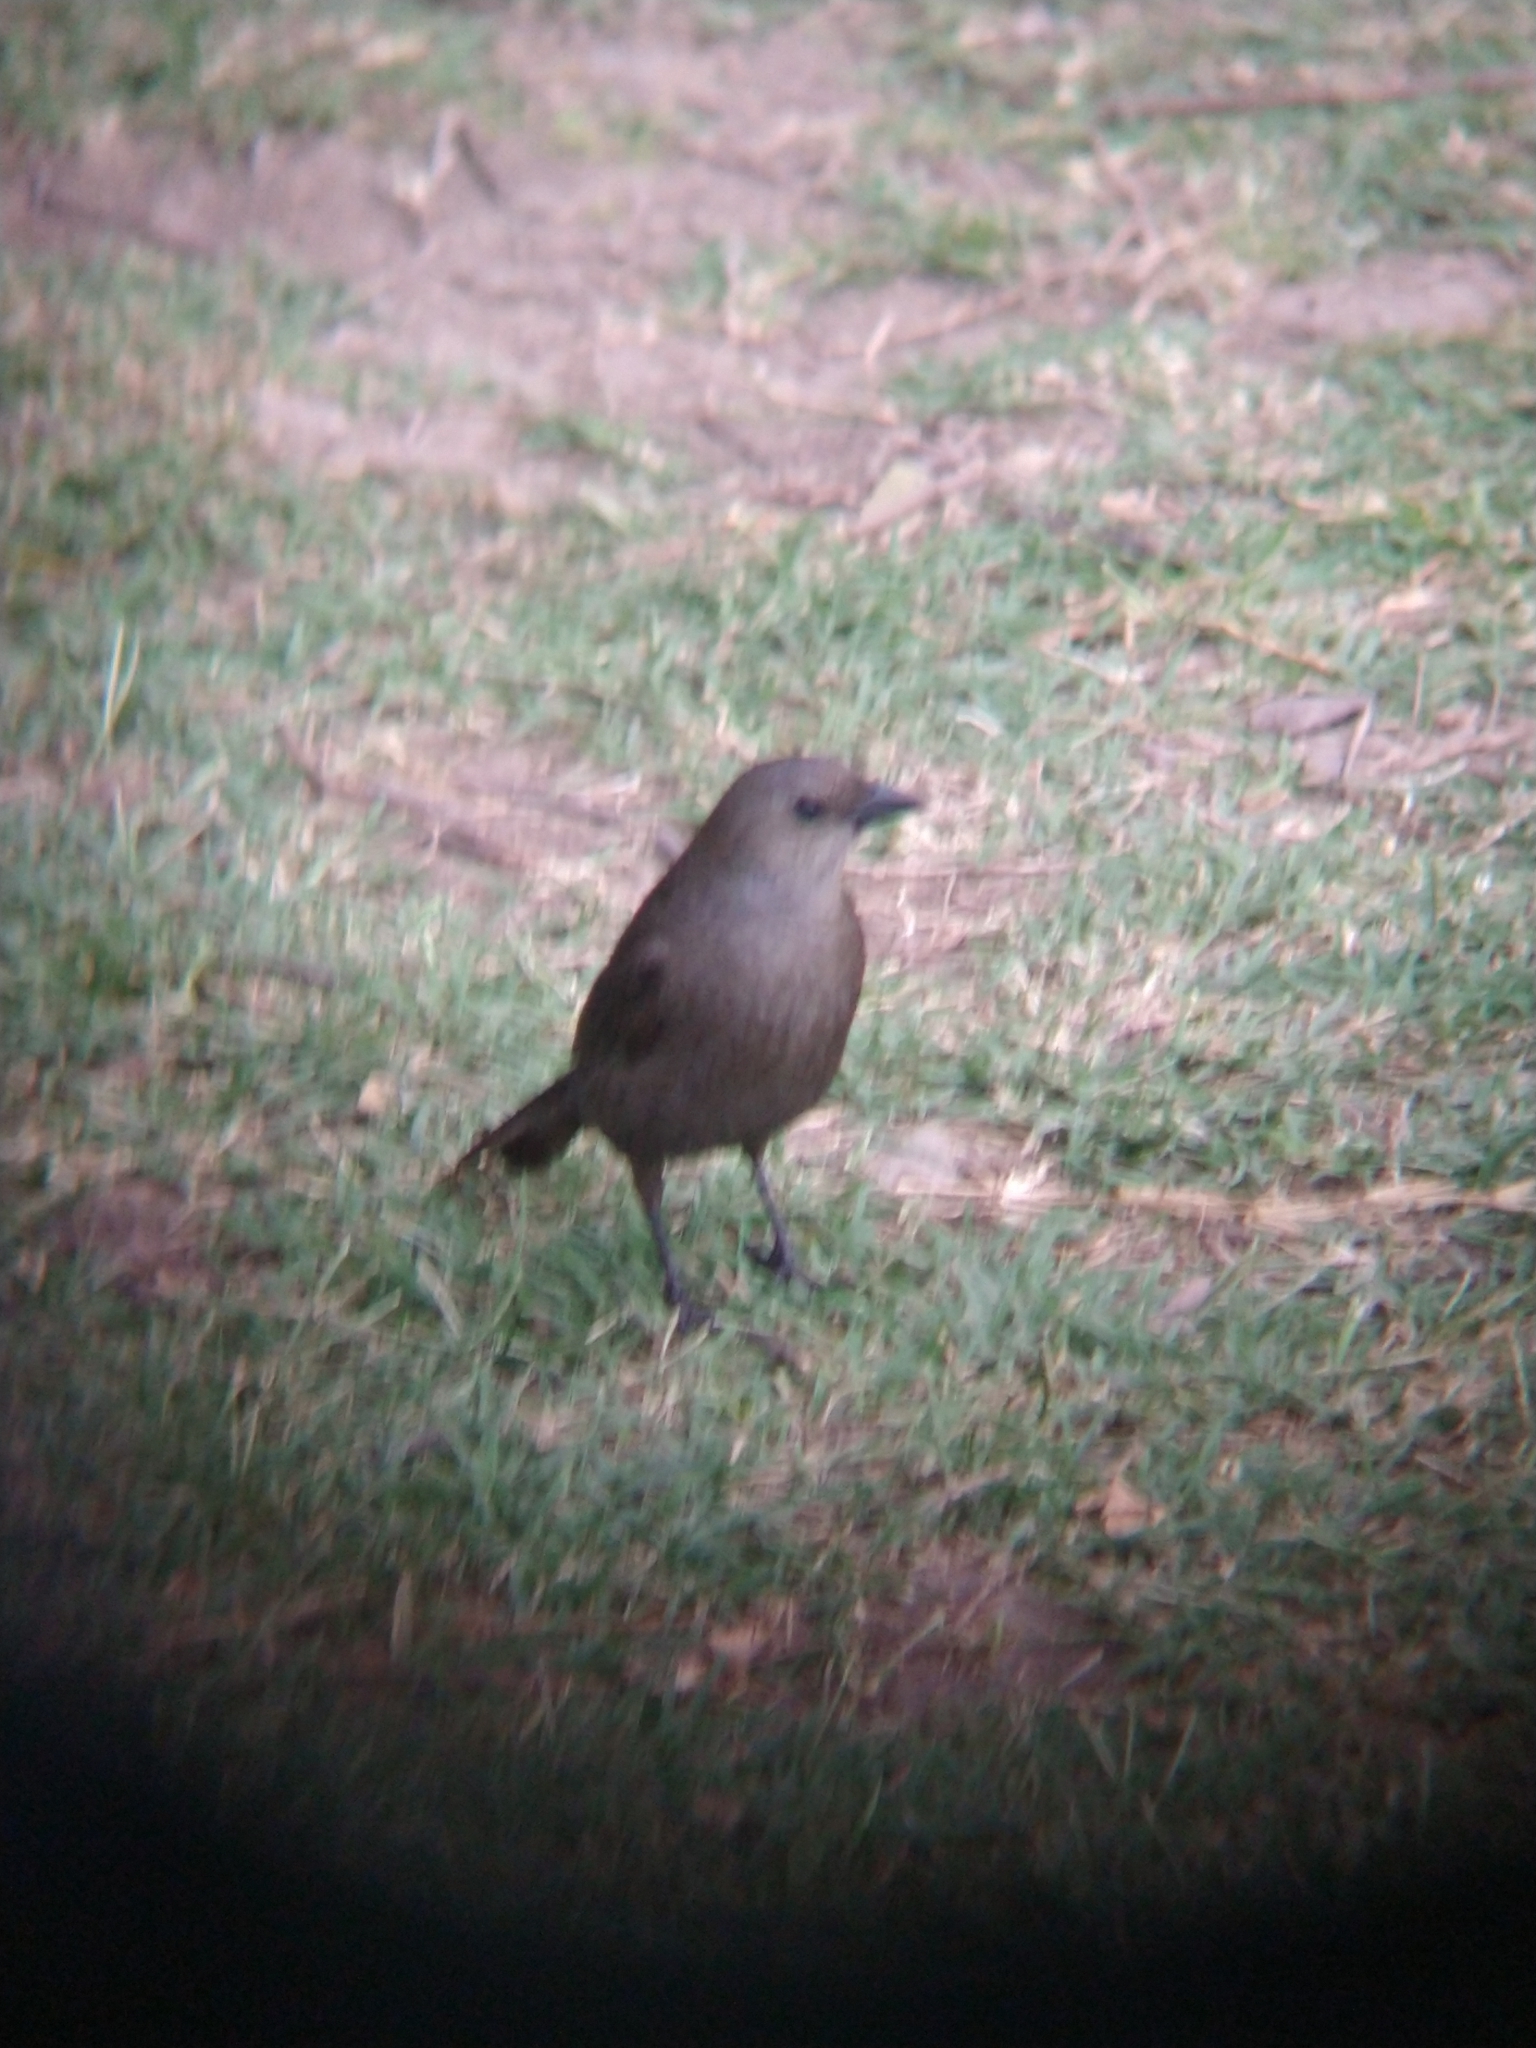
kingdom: Animalia
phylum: Chordata
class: Aves
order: Passeriformes
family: Icteridae
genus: Molothrus
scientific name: Molothrus bonariensis
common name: Shiny cowbird
